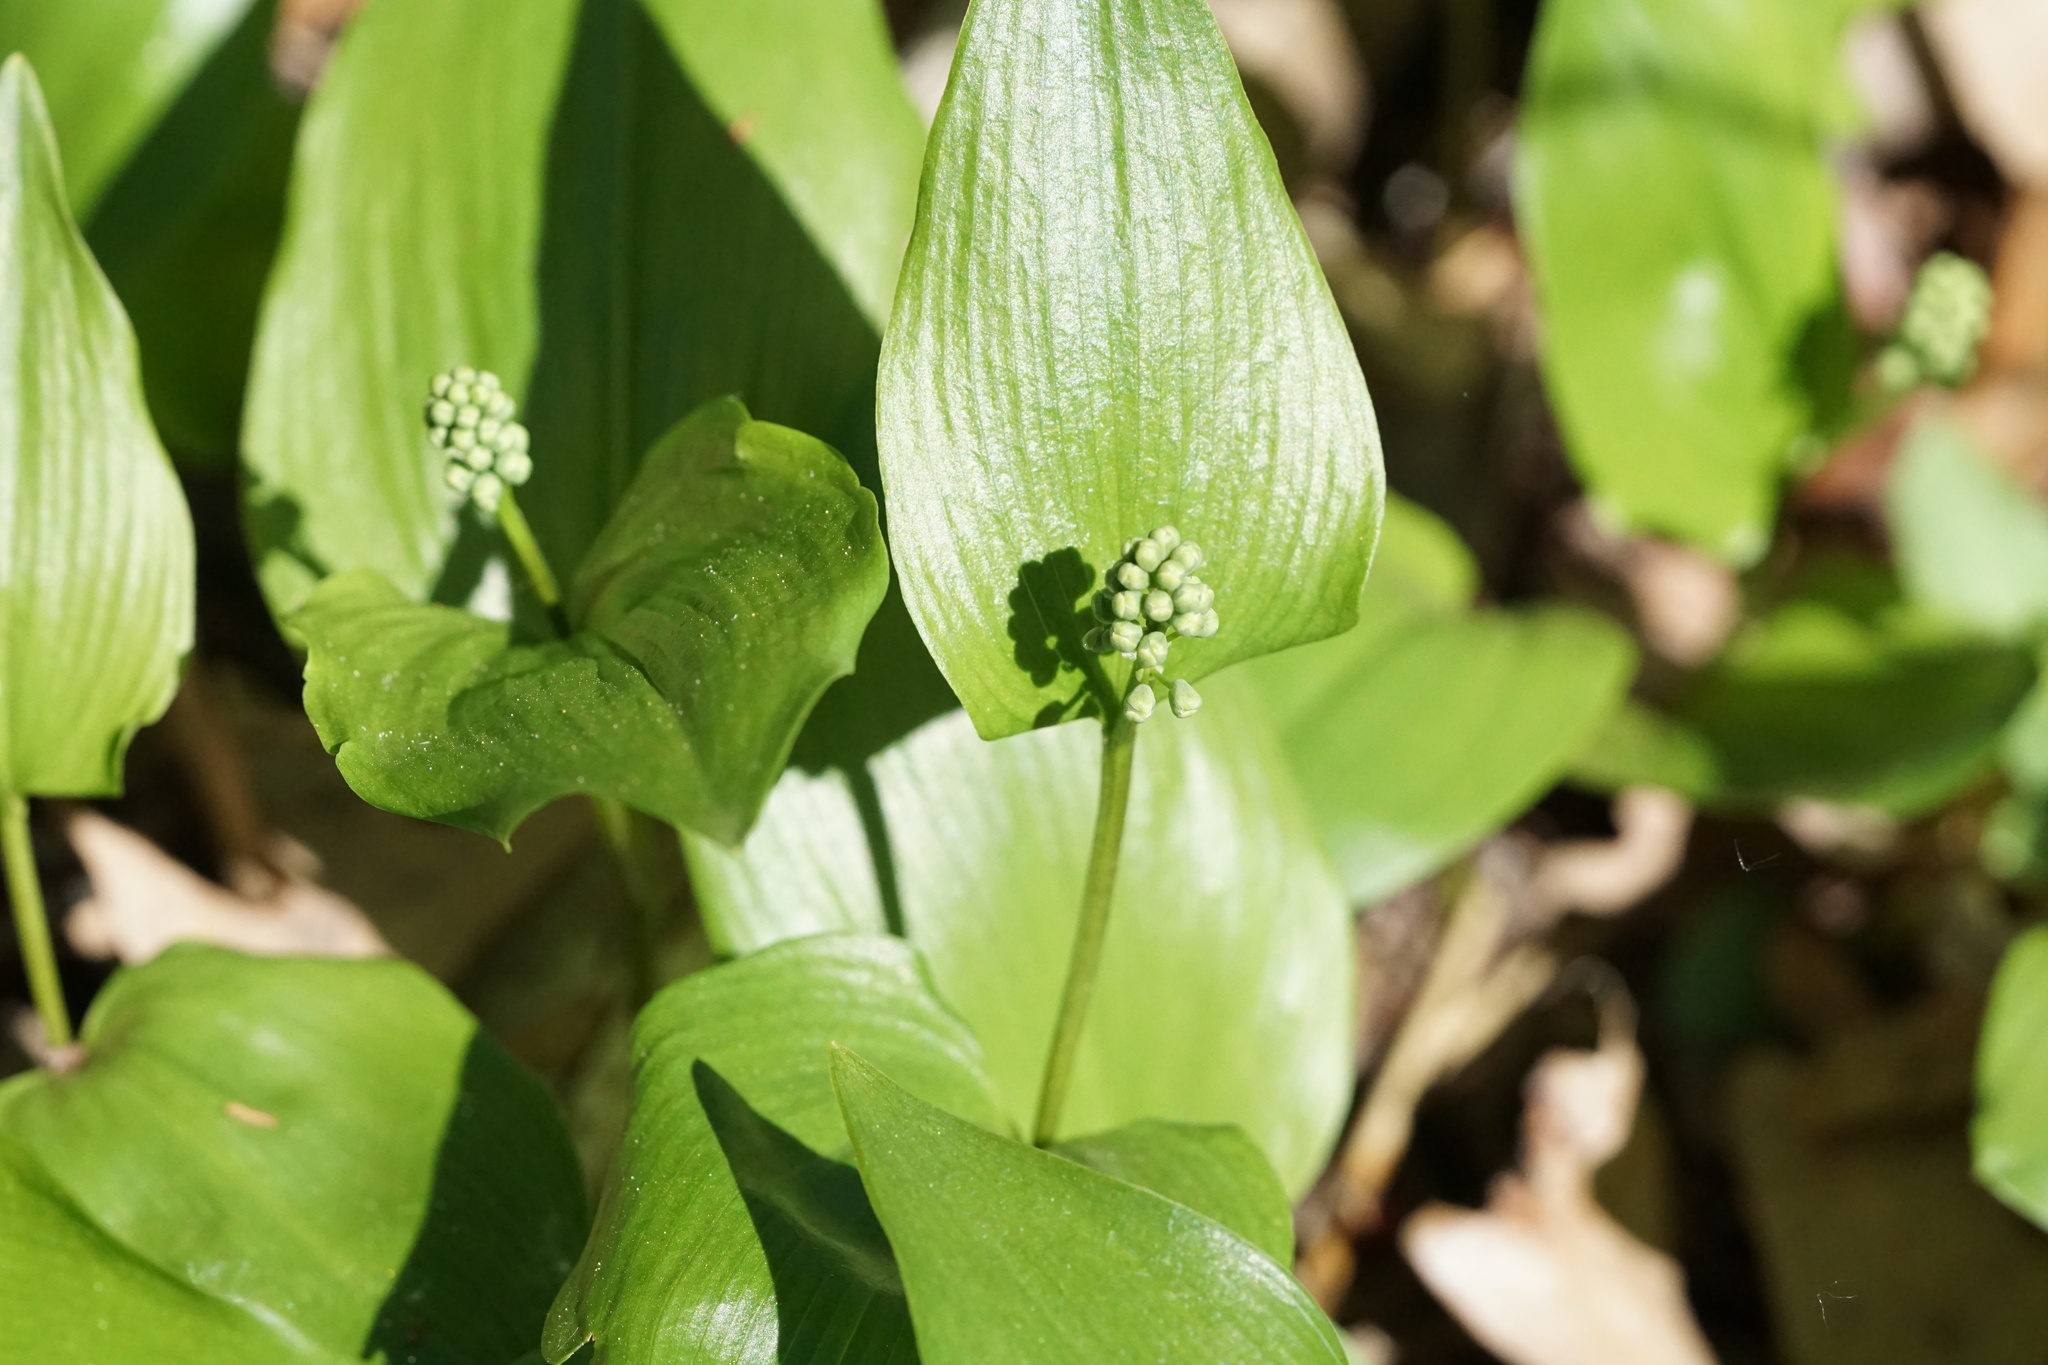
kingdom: Plantae
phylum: Tracheophyta
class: Liliopsida
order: Asparagales
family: Asparagaceae
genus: Maianthemum
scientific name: Maianthemum canadense
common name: False lily-of-the-valley
